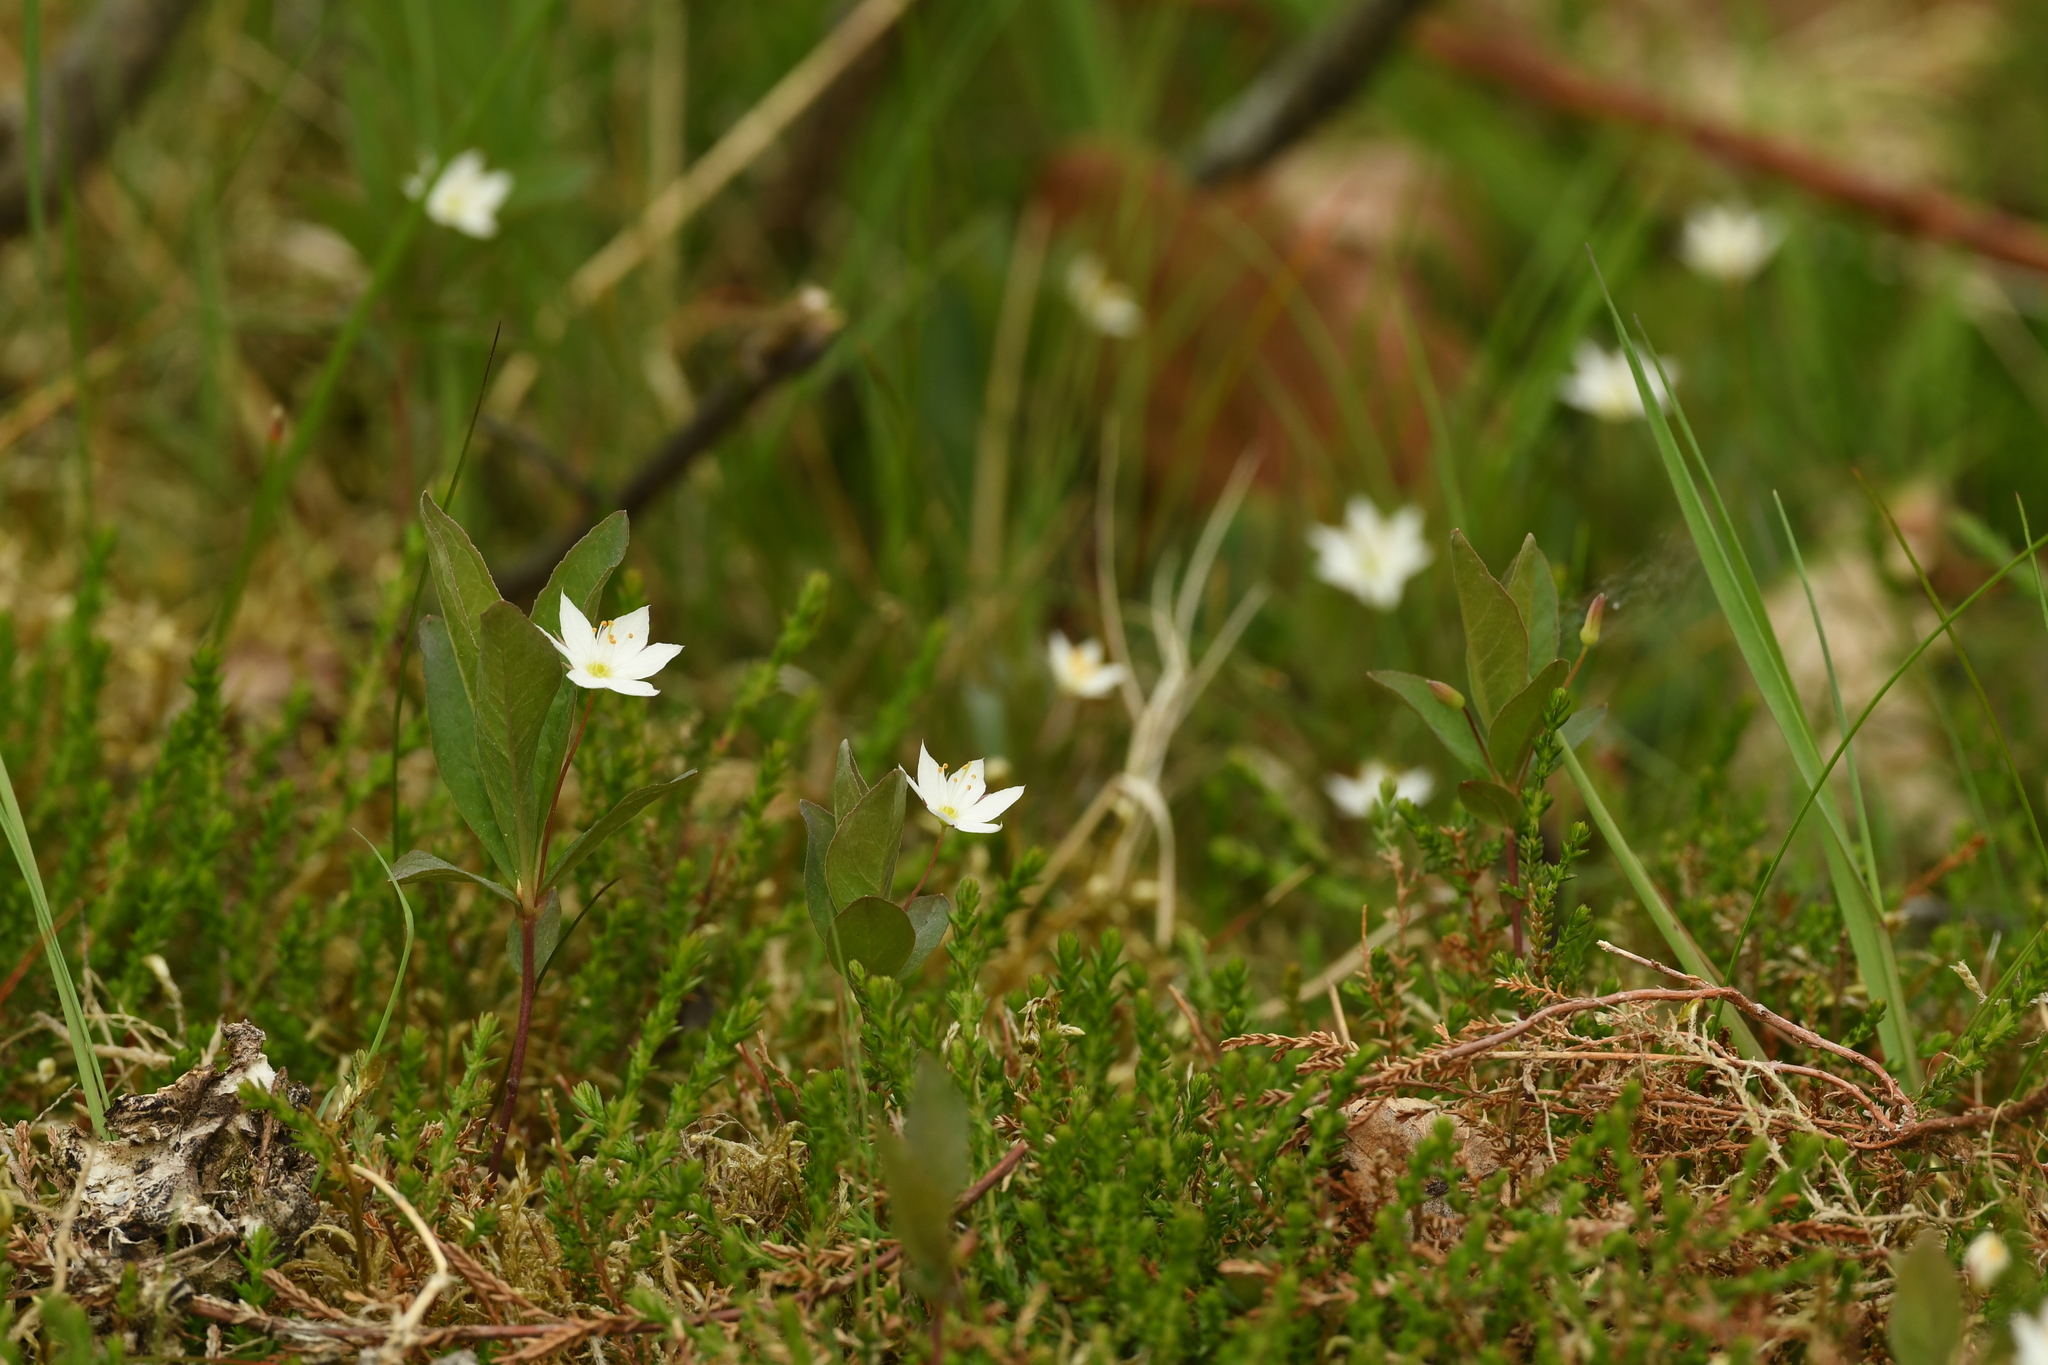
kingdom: Plantae
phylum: Tracheophyta
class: Magnoliopsida
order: Ericales
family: Primulaceae
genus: Lysimachia
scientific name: Lysimachia europaea
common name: Arctic starflower
